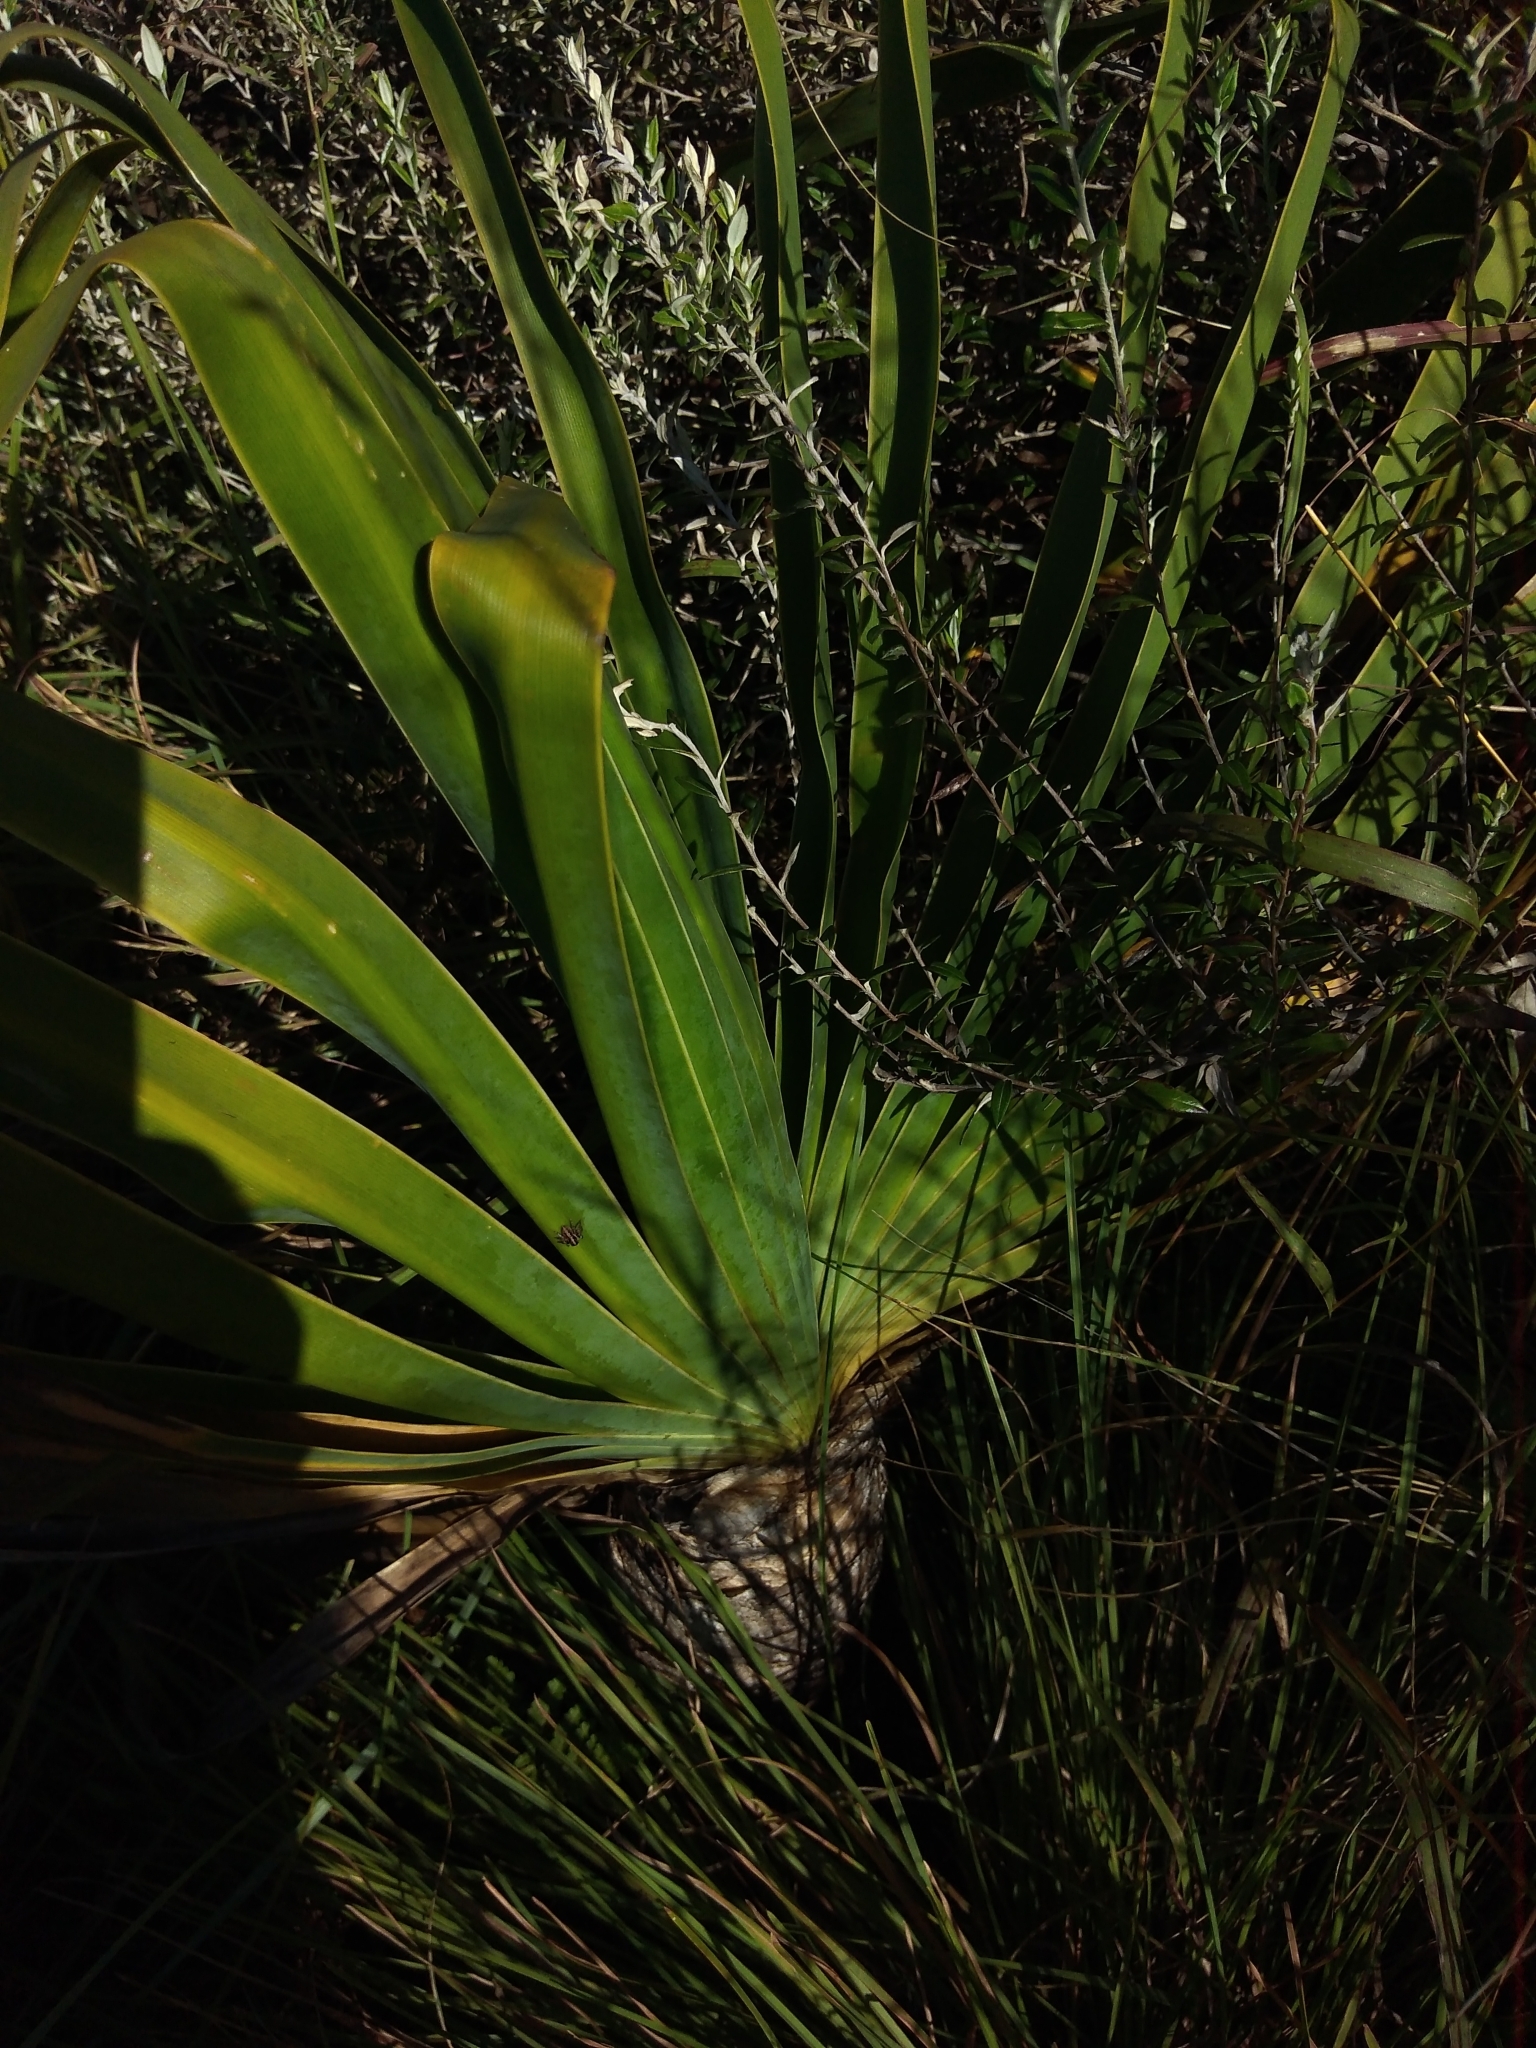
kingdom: Plantae
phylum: Tracheophyta
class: Liliopsida
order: Asparagales
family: Amaryllidaceae
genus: Boophone
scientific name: Boophone disticha
